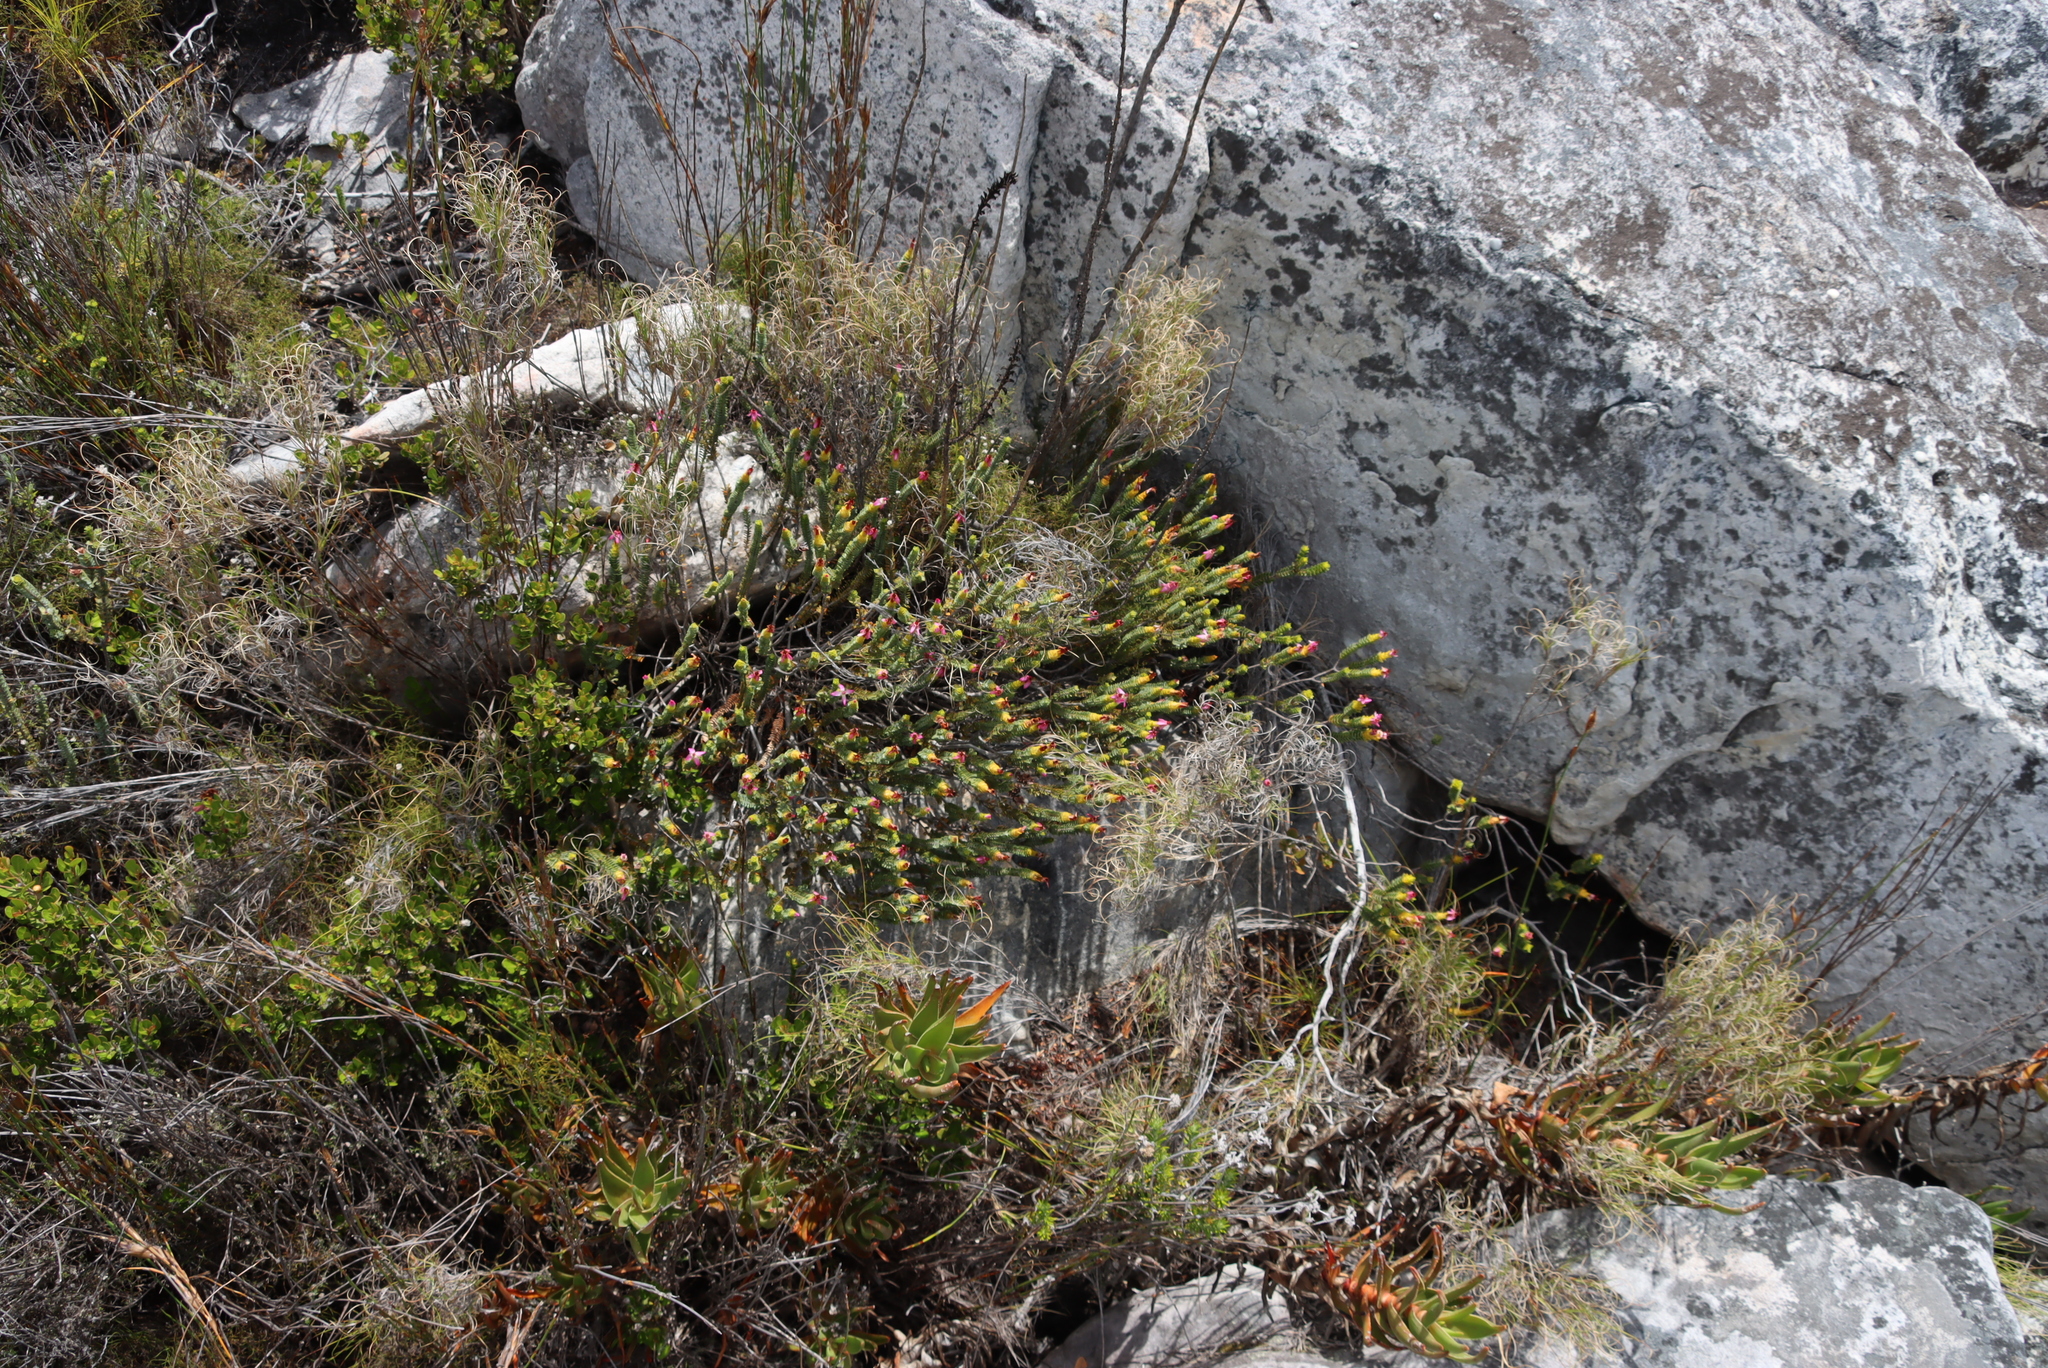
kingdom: Plantae
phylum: Tracheophyta
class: Magnoliopsida
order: Myrtales
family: Penaeaceae
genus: Saltera
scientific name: Saltera sarcocolla
